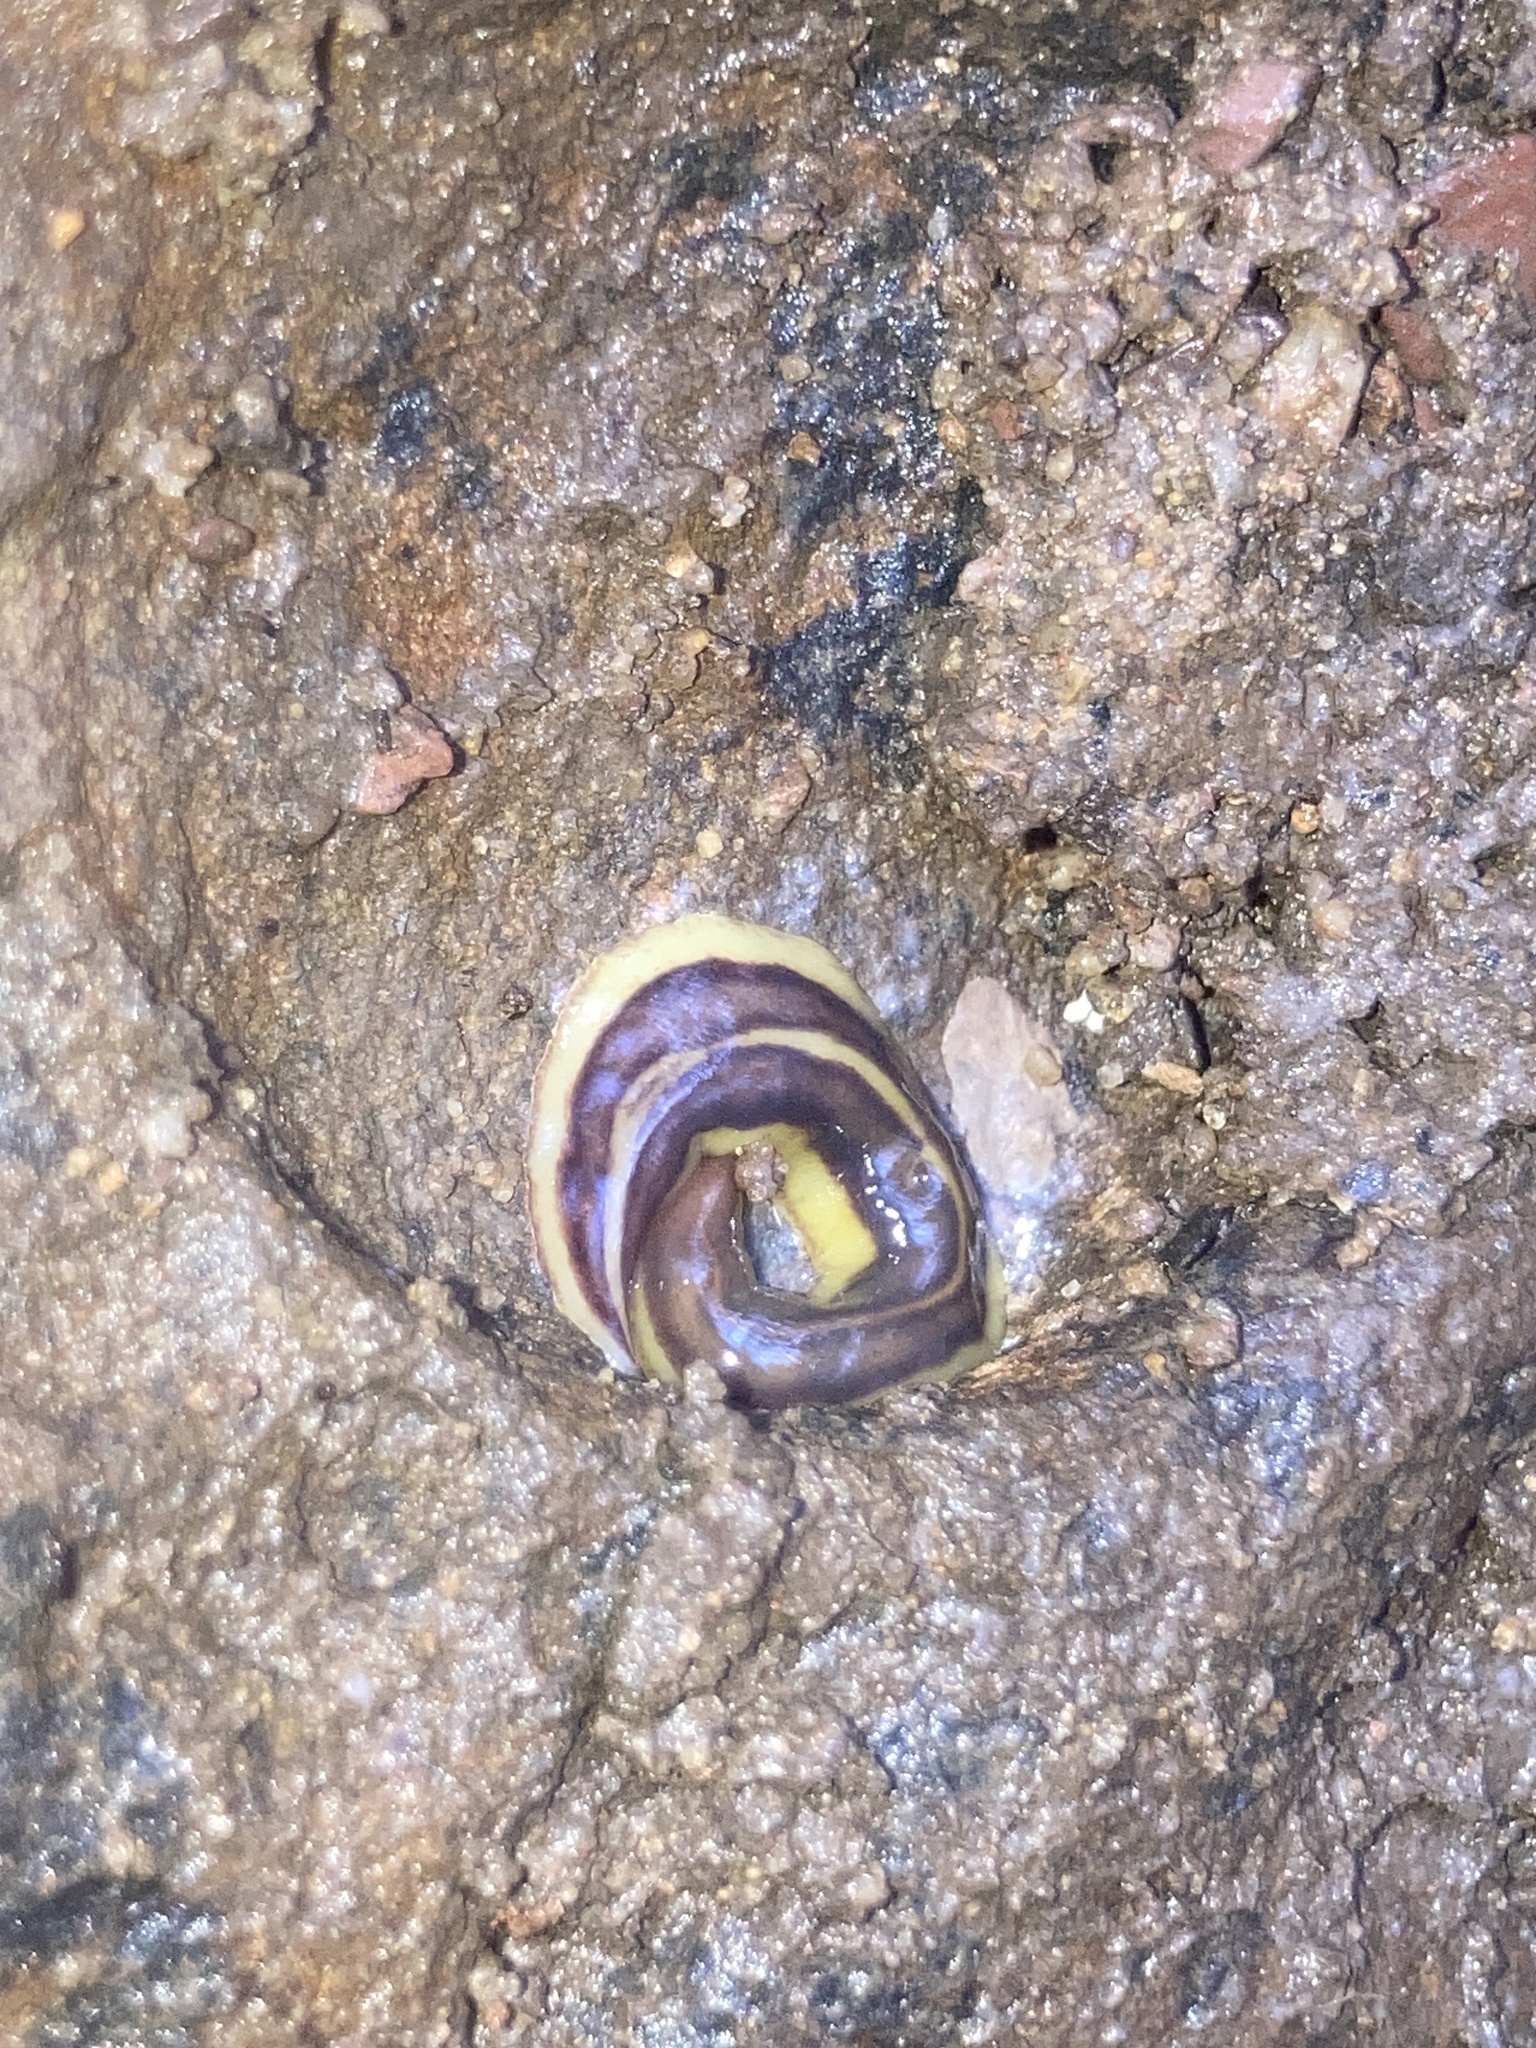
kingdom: Animalia
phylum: Platyhelminthes
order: Tricladida
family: Geoplanidae
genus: Caenoplana
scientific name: Caenoplana variegata
